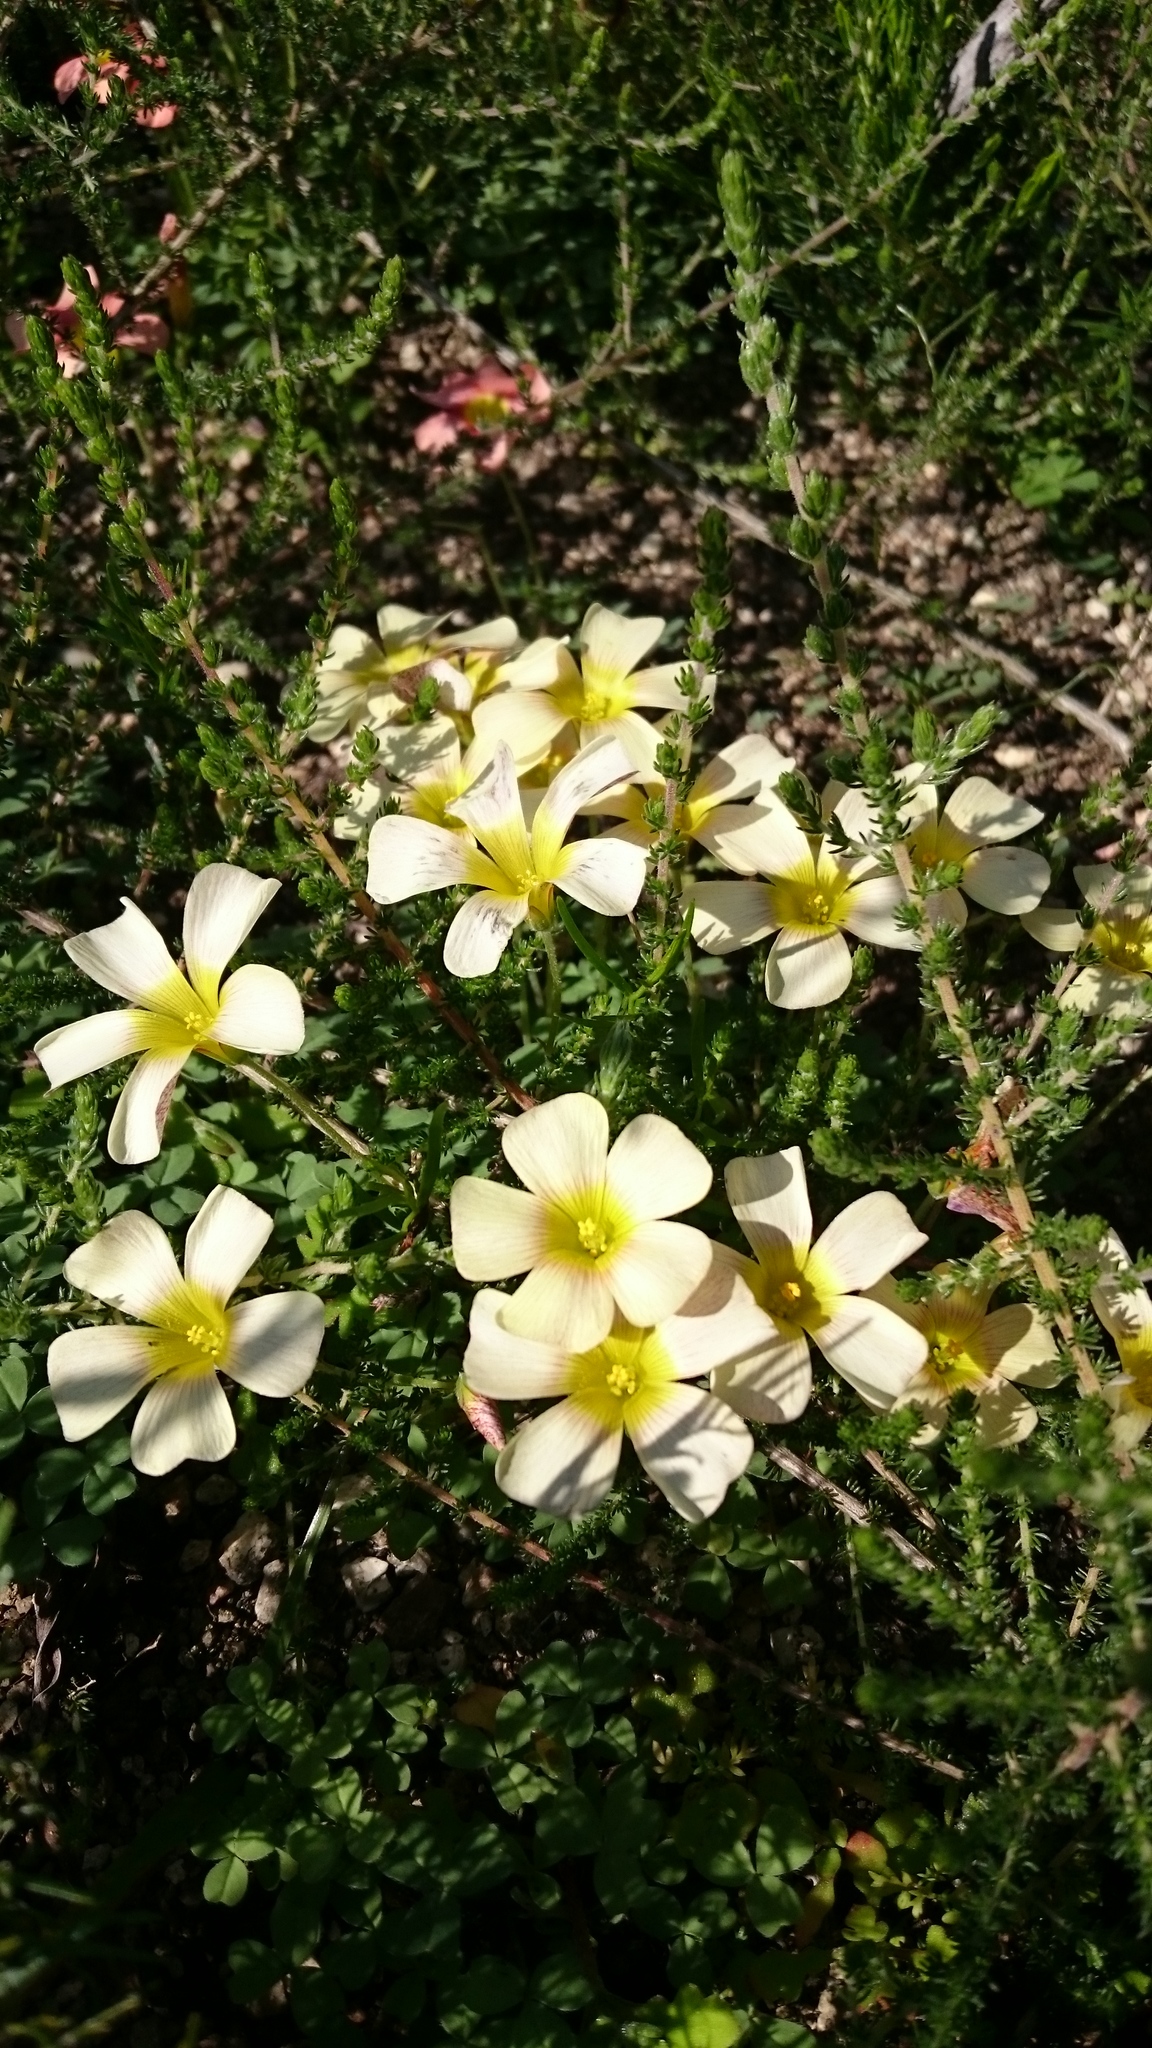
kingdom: Plantae
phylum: Tracheophyta
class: Magnoliopsida
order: Oxalidales
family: Oxalidaceae
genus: Oxalis
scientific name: Oxalis obtusa
